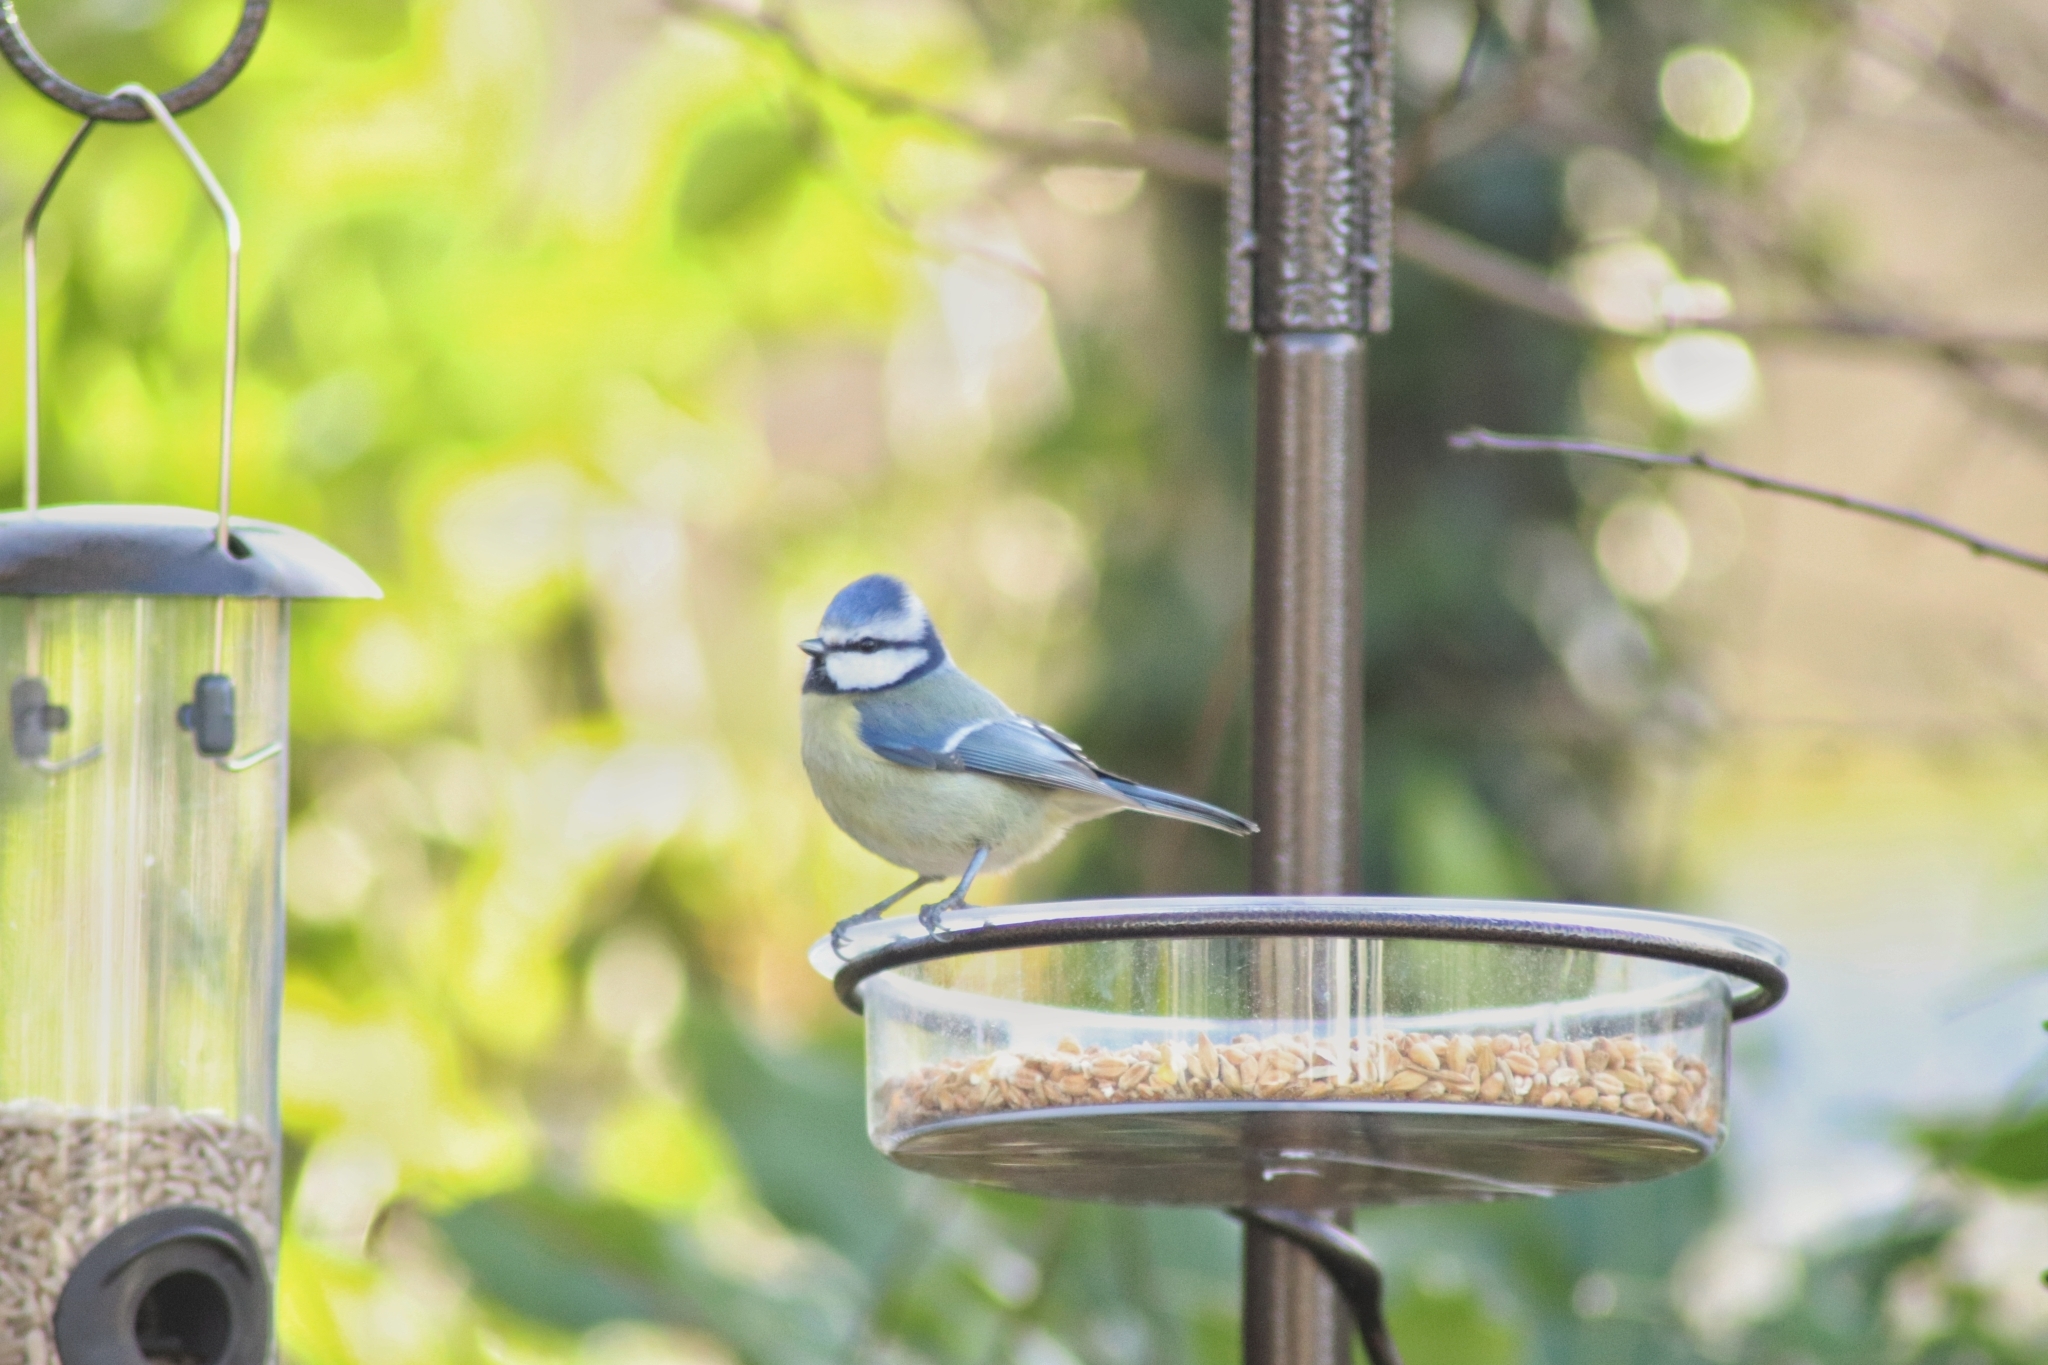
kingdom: Animalia
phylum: Chordata
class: Aves
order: Passeriformes
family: Paridae
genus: Cyanistes
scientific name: Cyanistes caeruleus
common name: Eurasian blue tit
